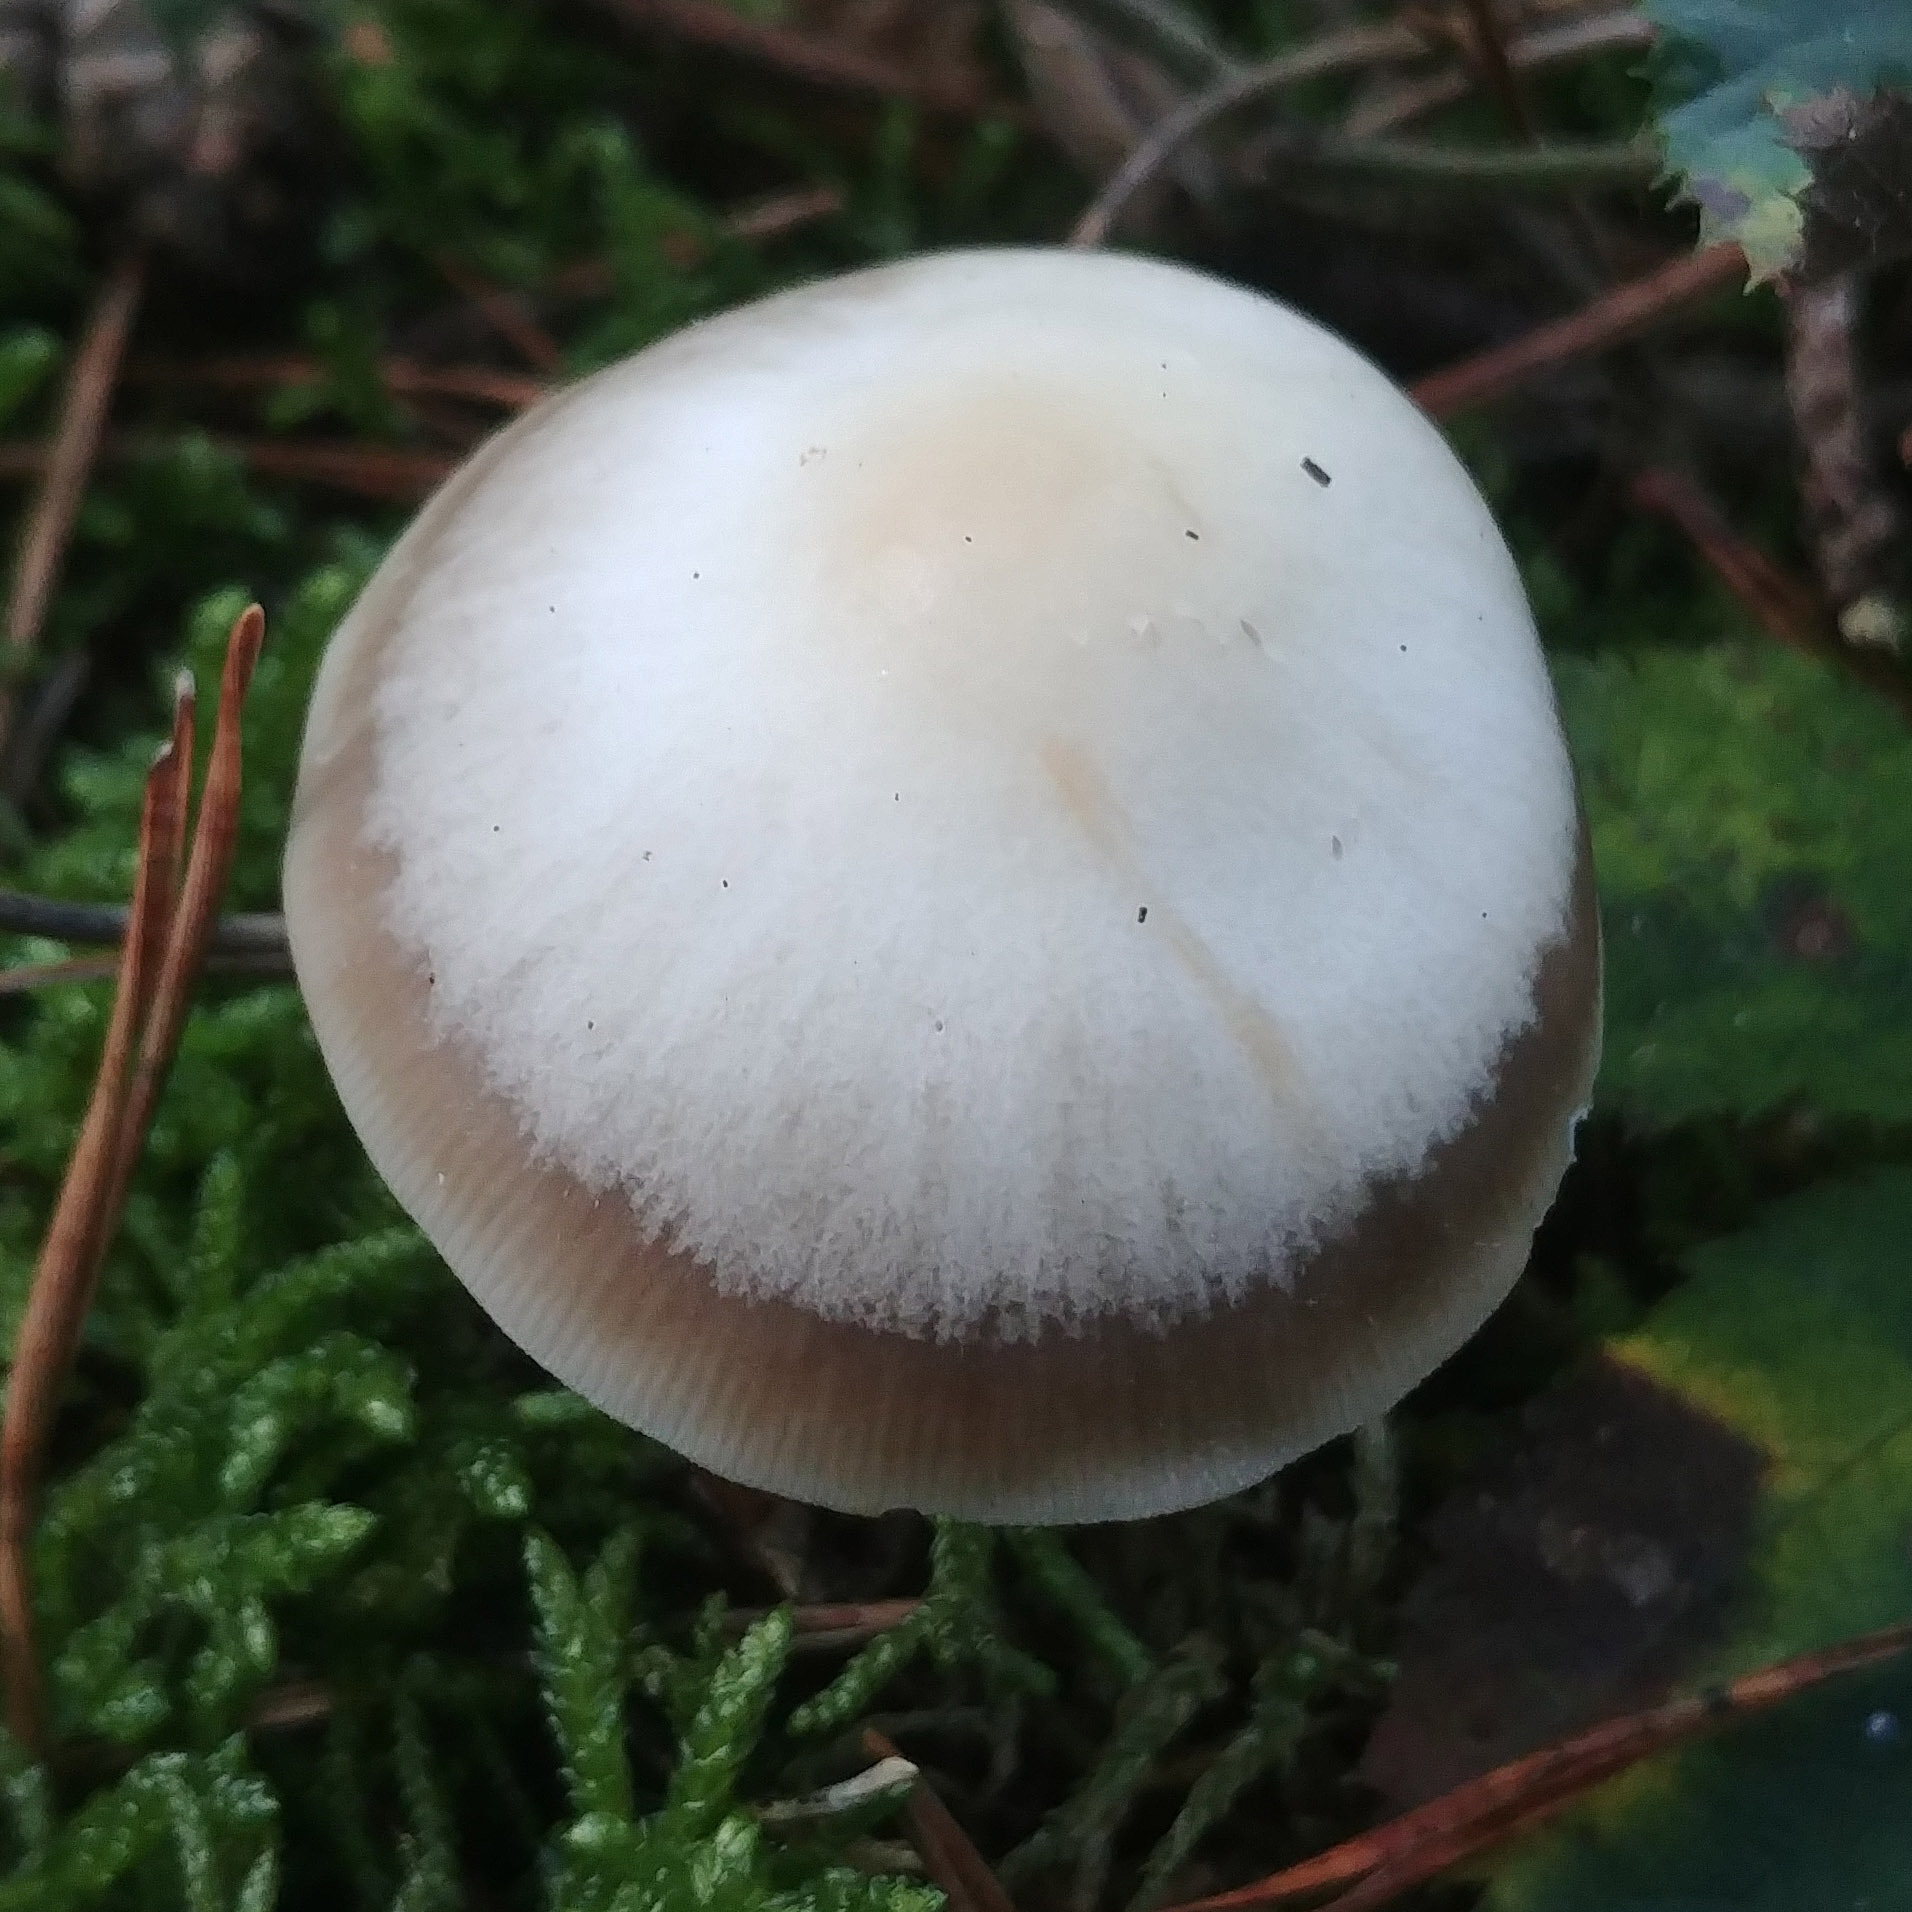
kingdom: Fungi
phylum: Basidiomycota
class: Agaricomycetes
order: Agaricales
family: Omphalotaceae
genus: Rhodocollybia
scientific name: Rhodocollybia asema
